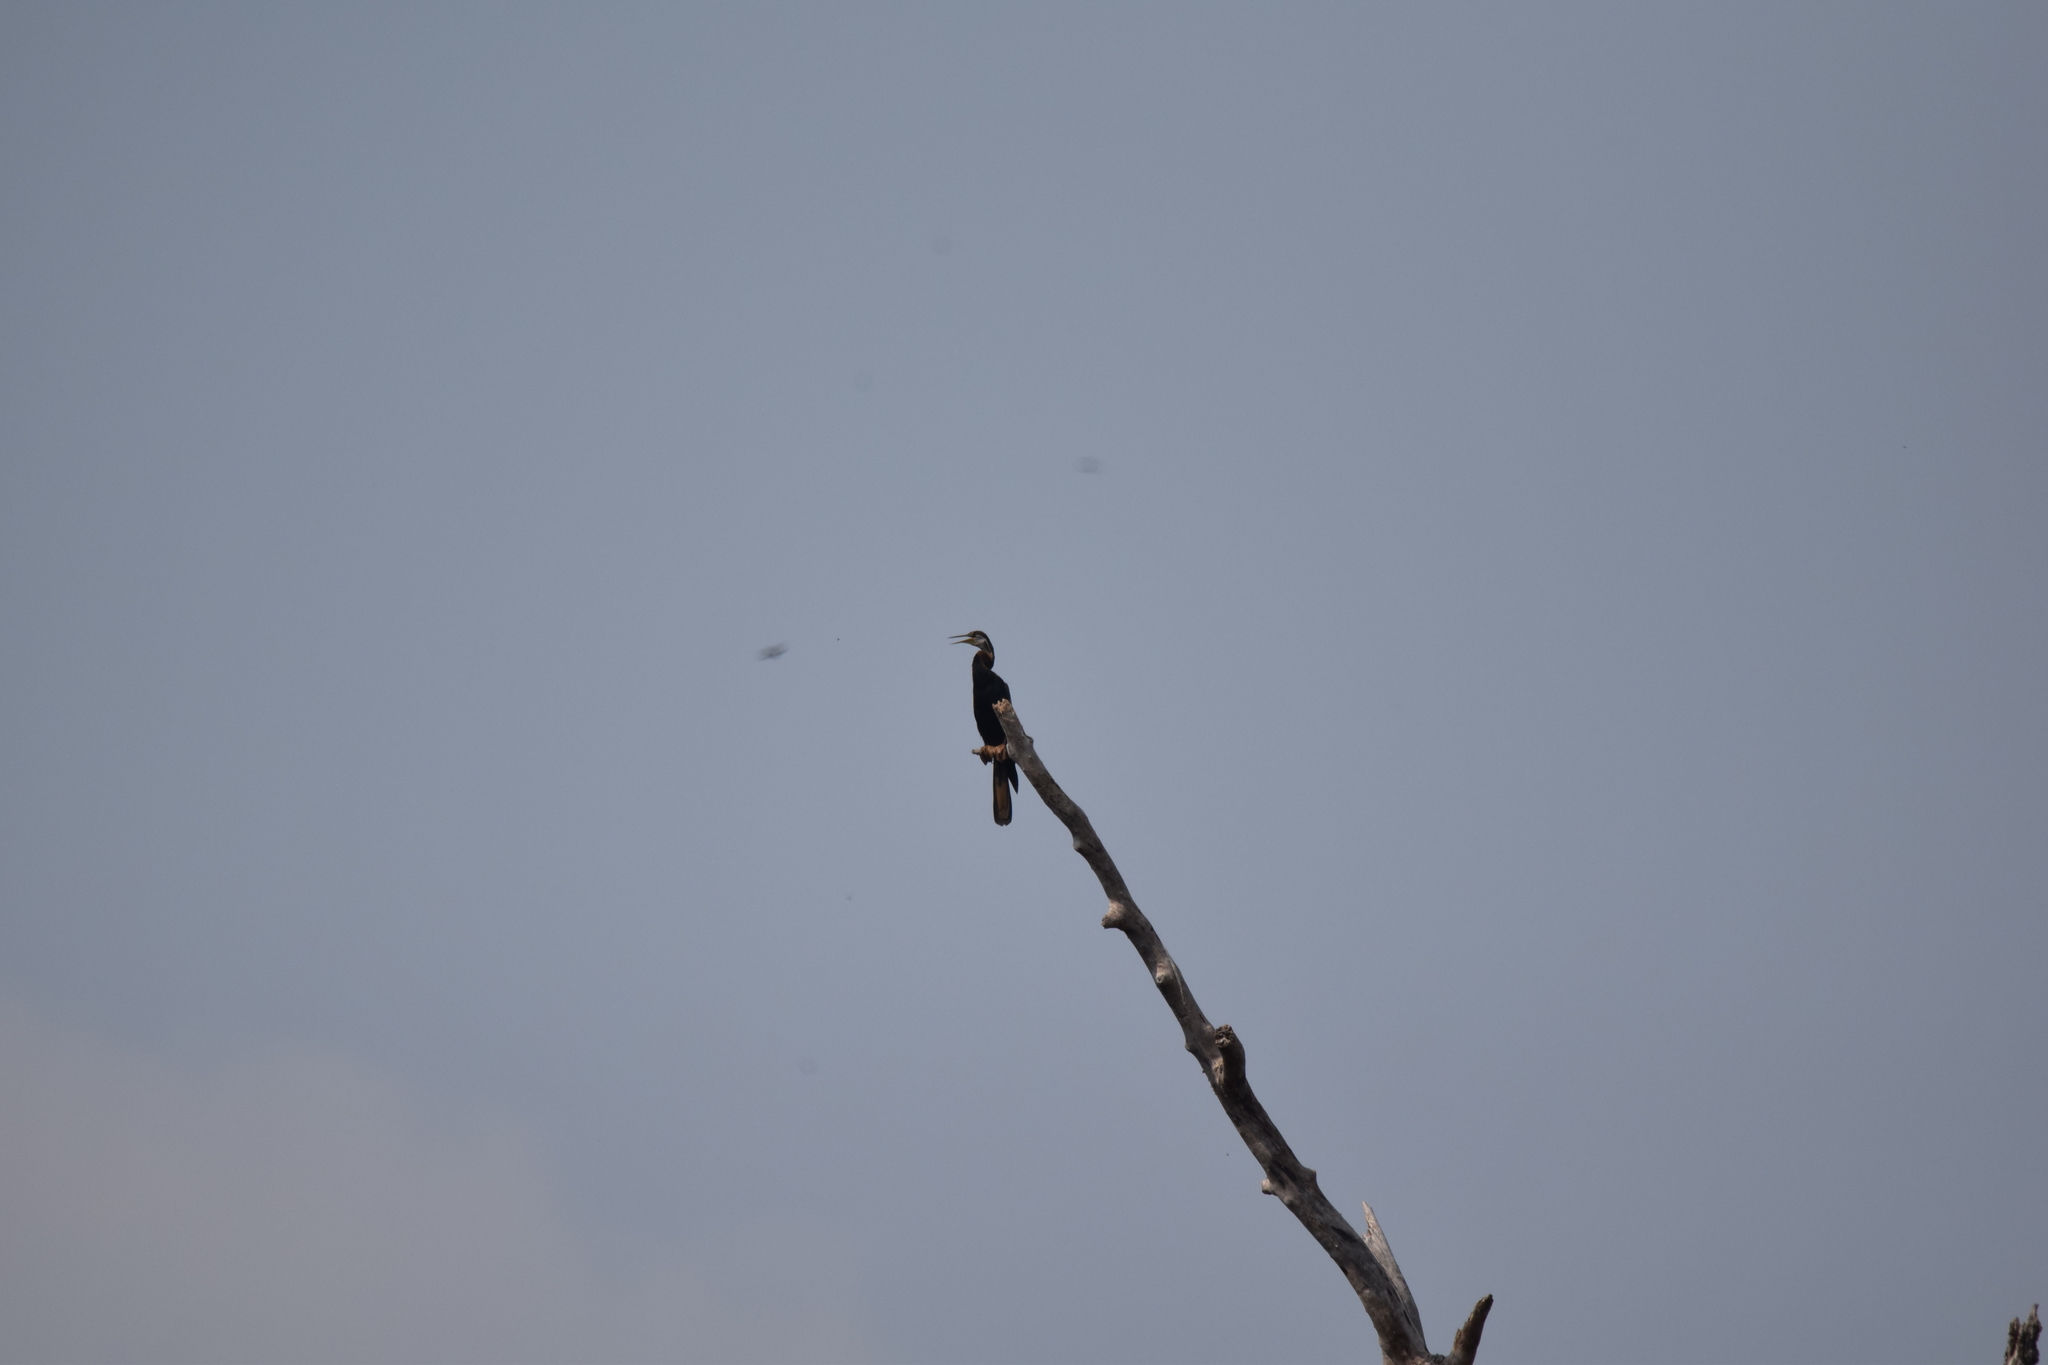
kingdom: Animalia
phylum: Chordata
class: Aves
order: Suliformes
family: Anhingidae
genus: Anhinga
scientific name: Anhinga melanogaster
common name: Oriental darter
